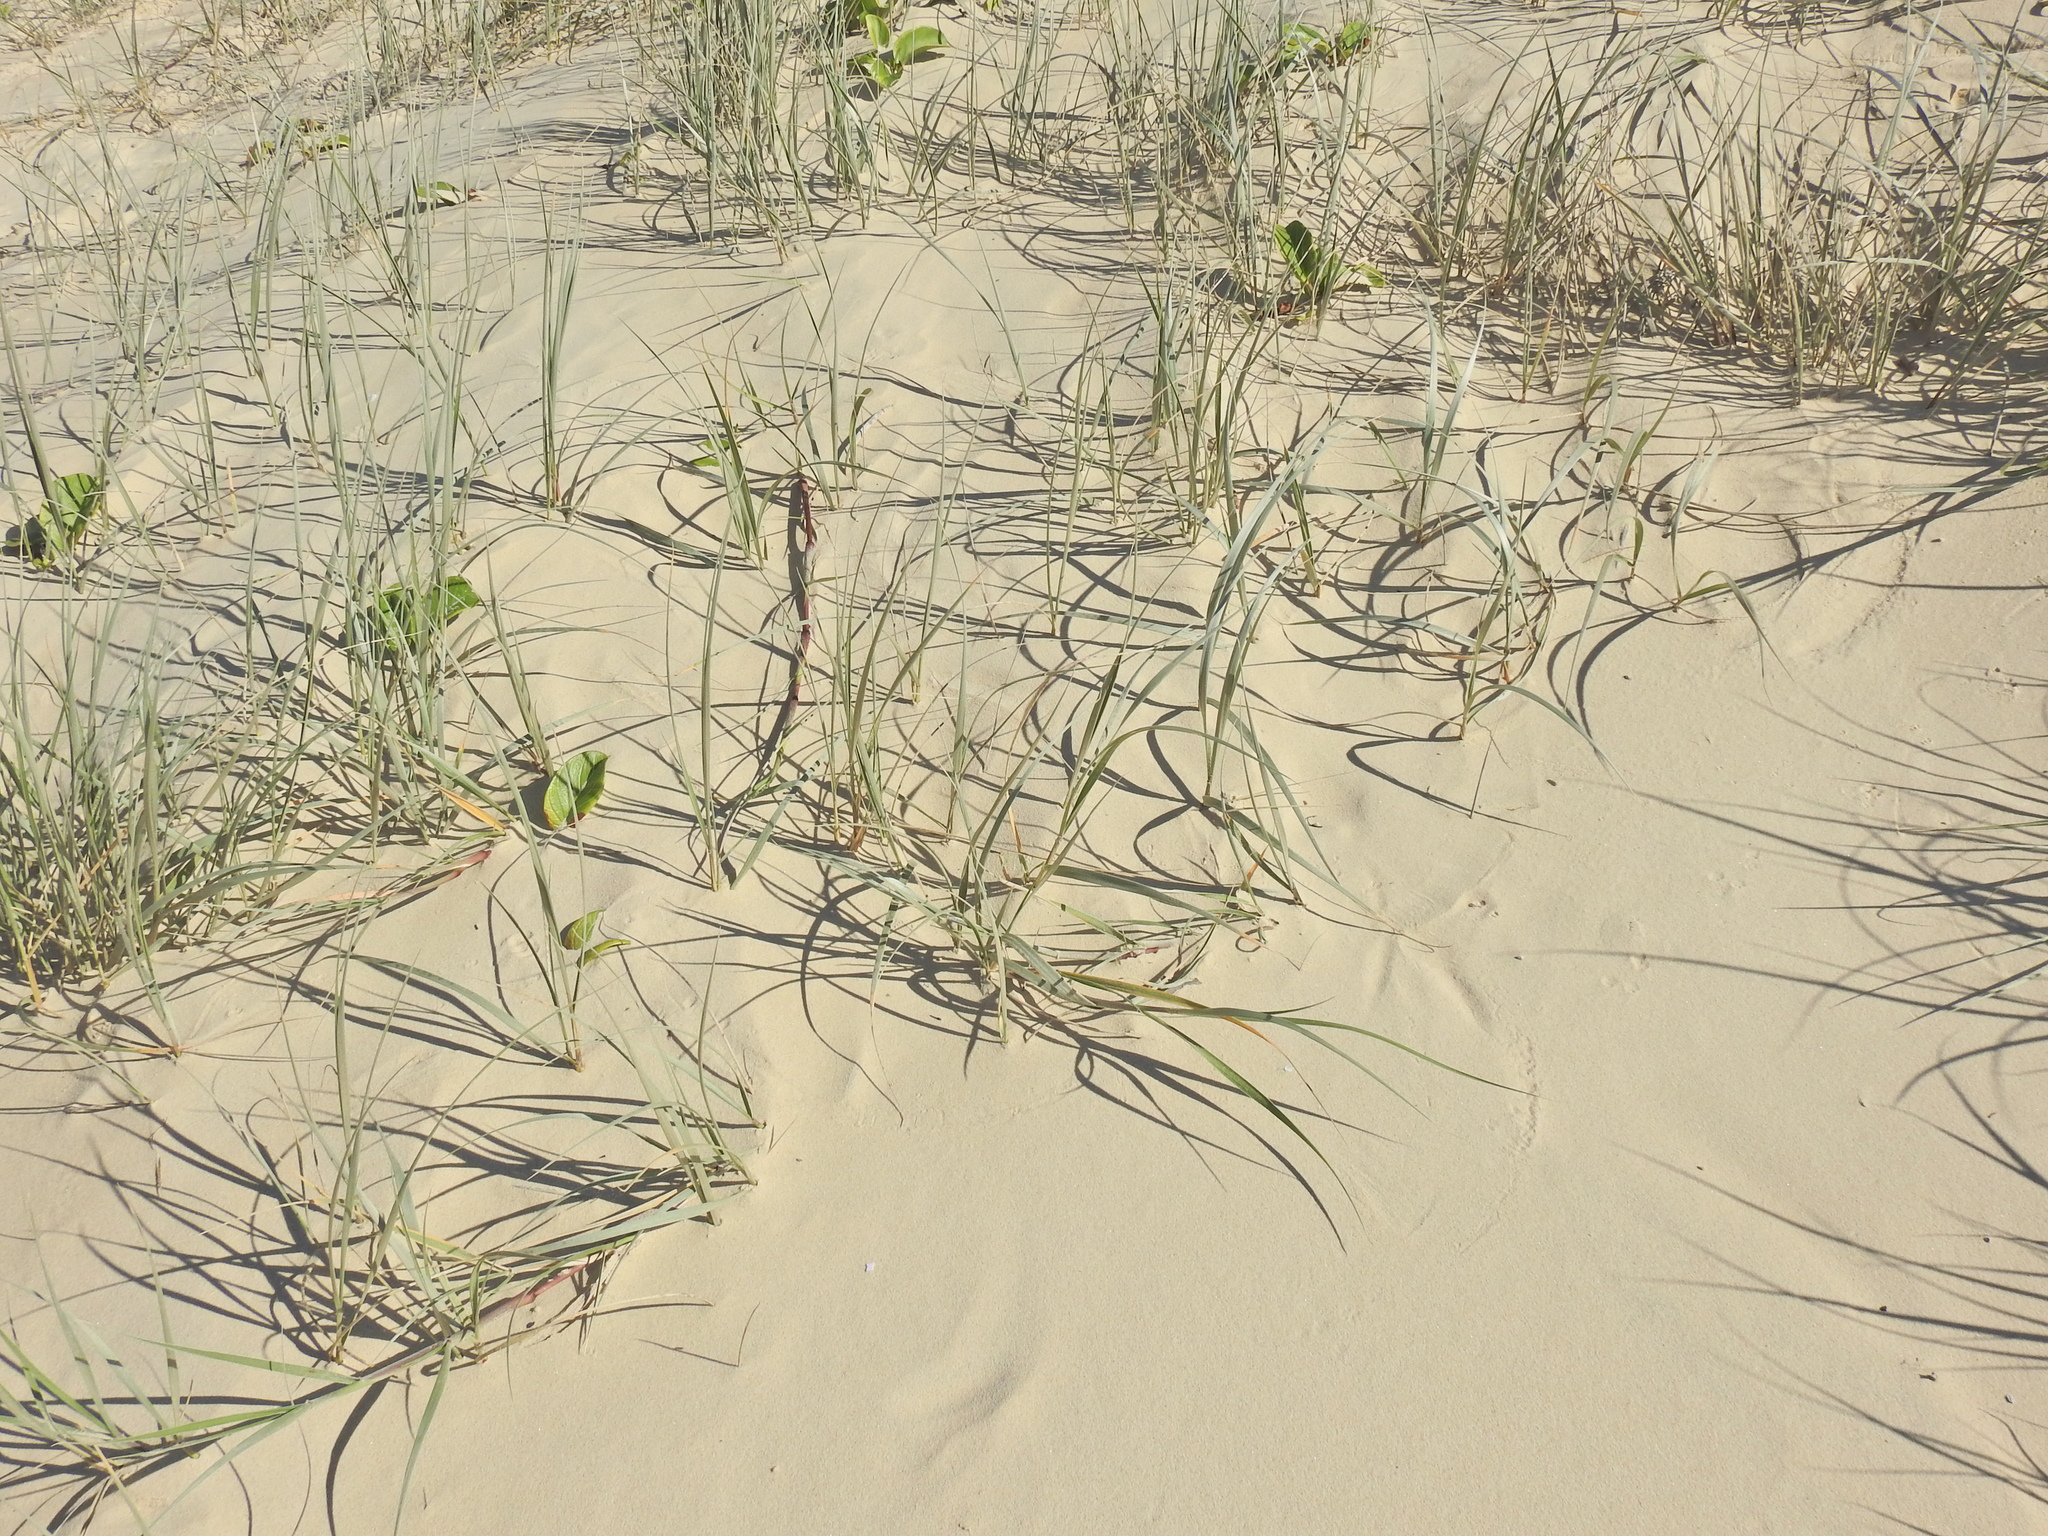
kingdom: Plantae
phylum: Tracheophyta
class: Liliopsida
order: Poales
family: Poaceae
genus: Spinifex
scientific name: Spinifex sericeus
